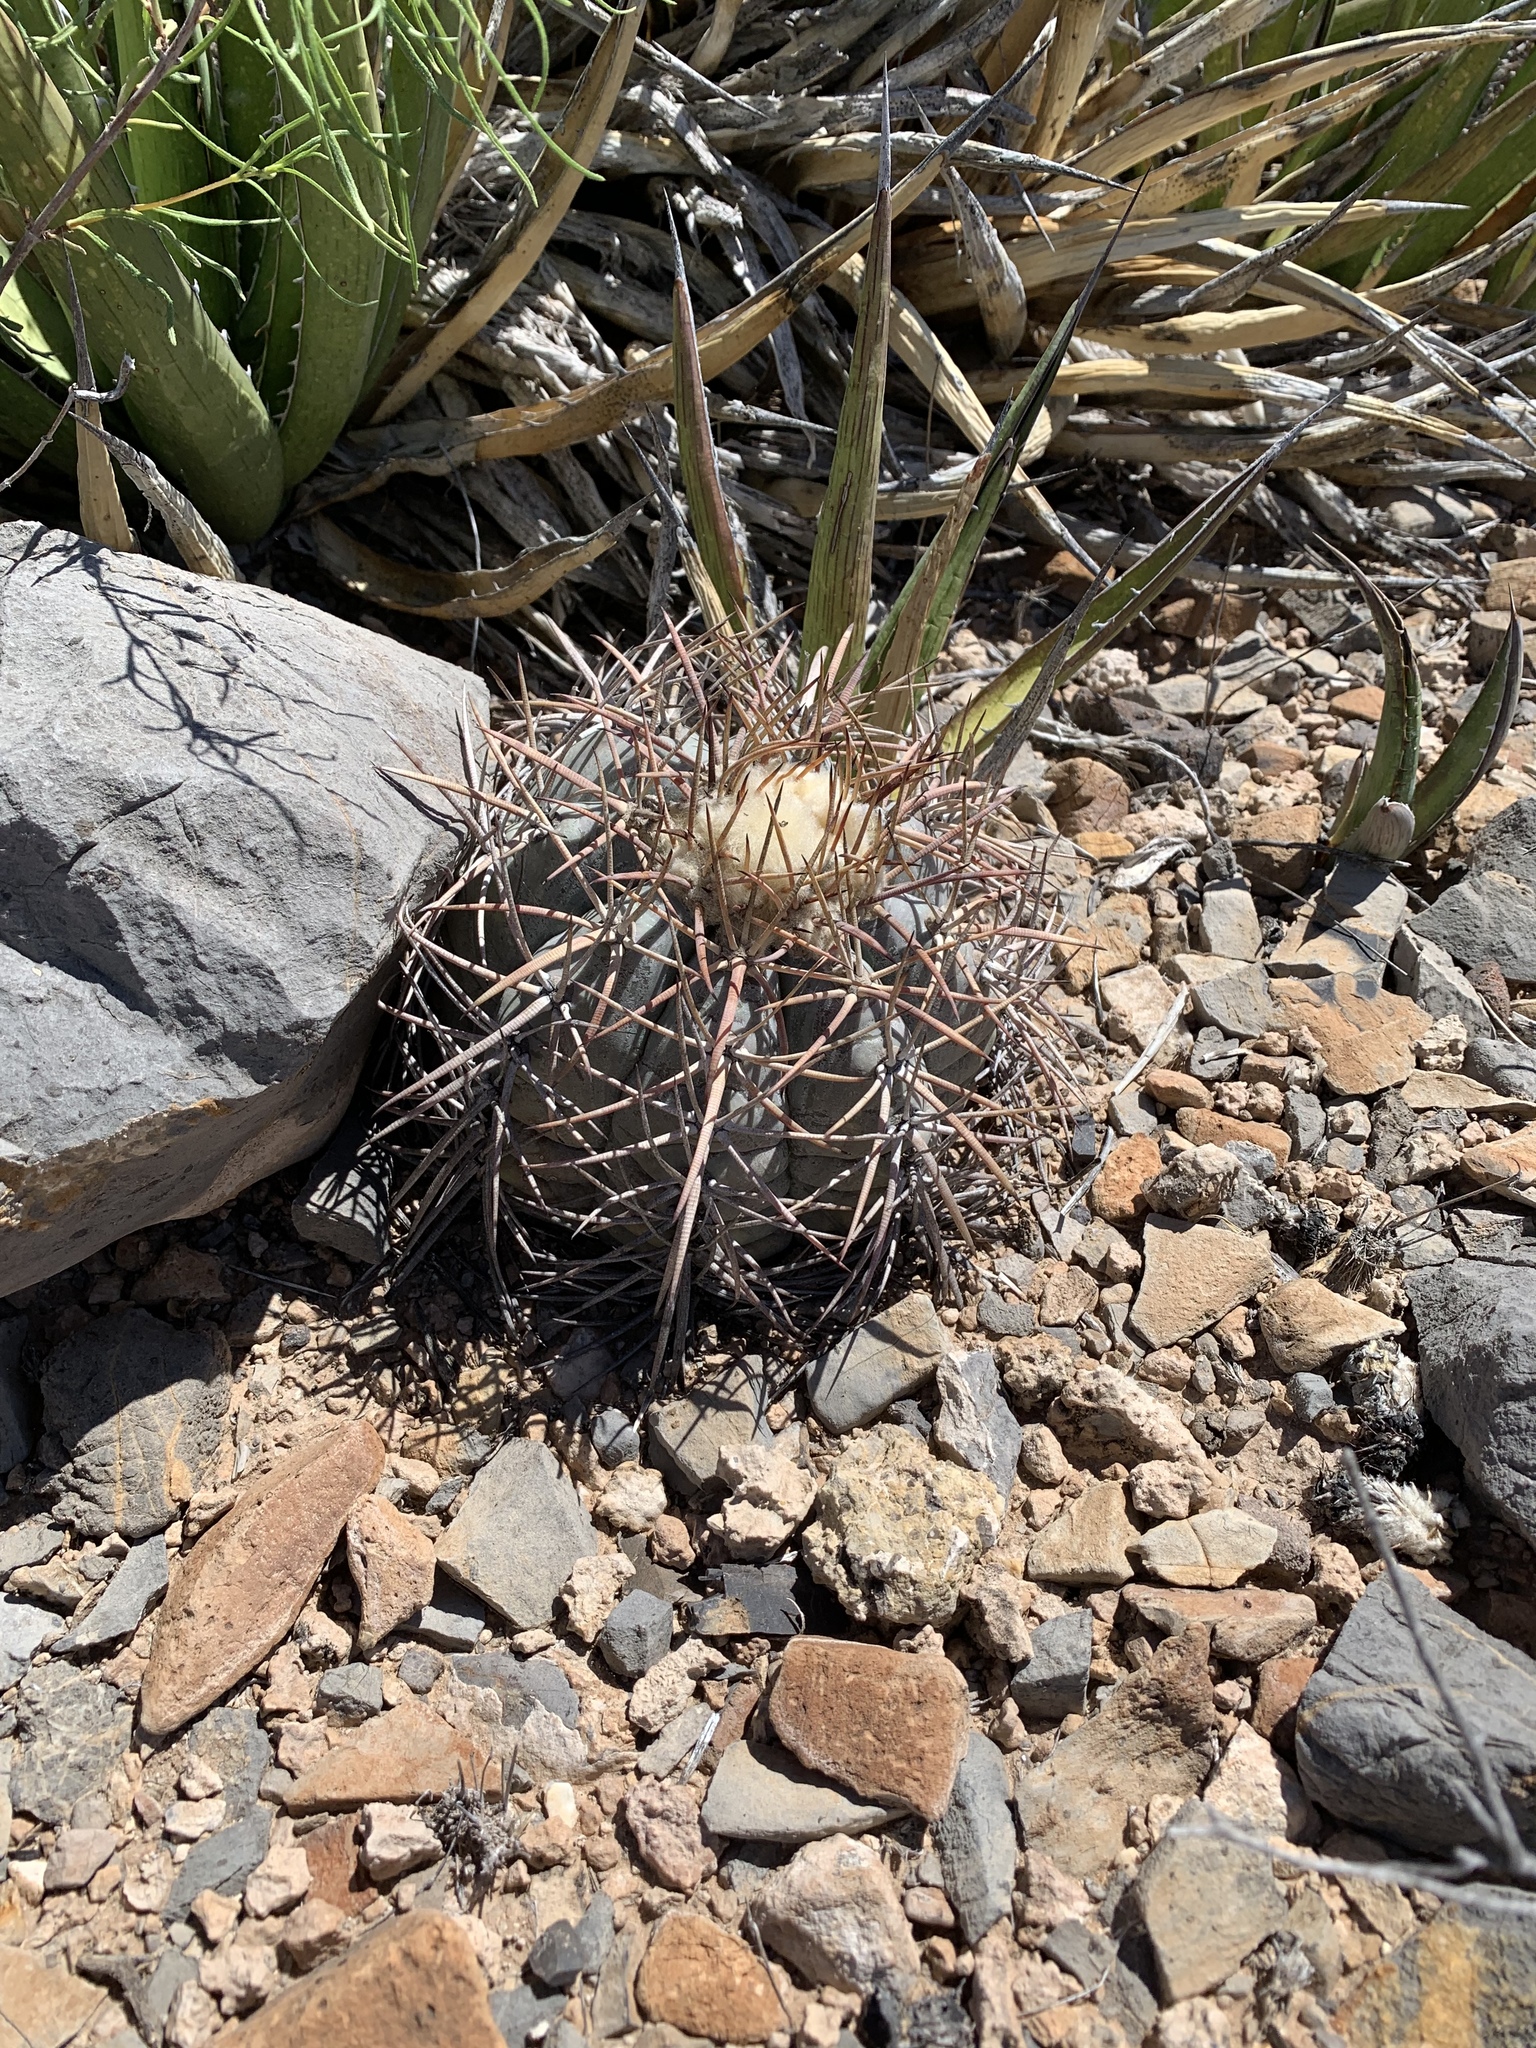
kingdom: Plantae
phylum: Tracheophyta
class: Magnoliopsida
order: Caryophyllales
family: Cactaceae
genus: Echinocactus
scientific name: Echinocactus horizonthalonius
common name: Devilshead
